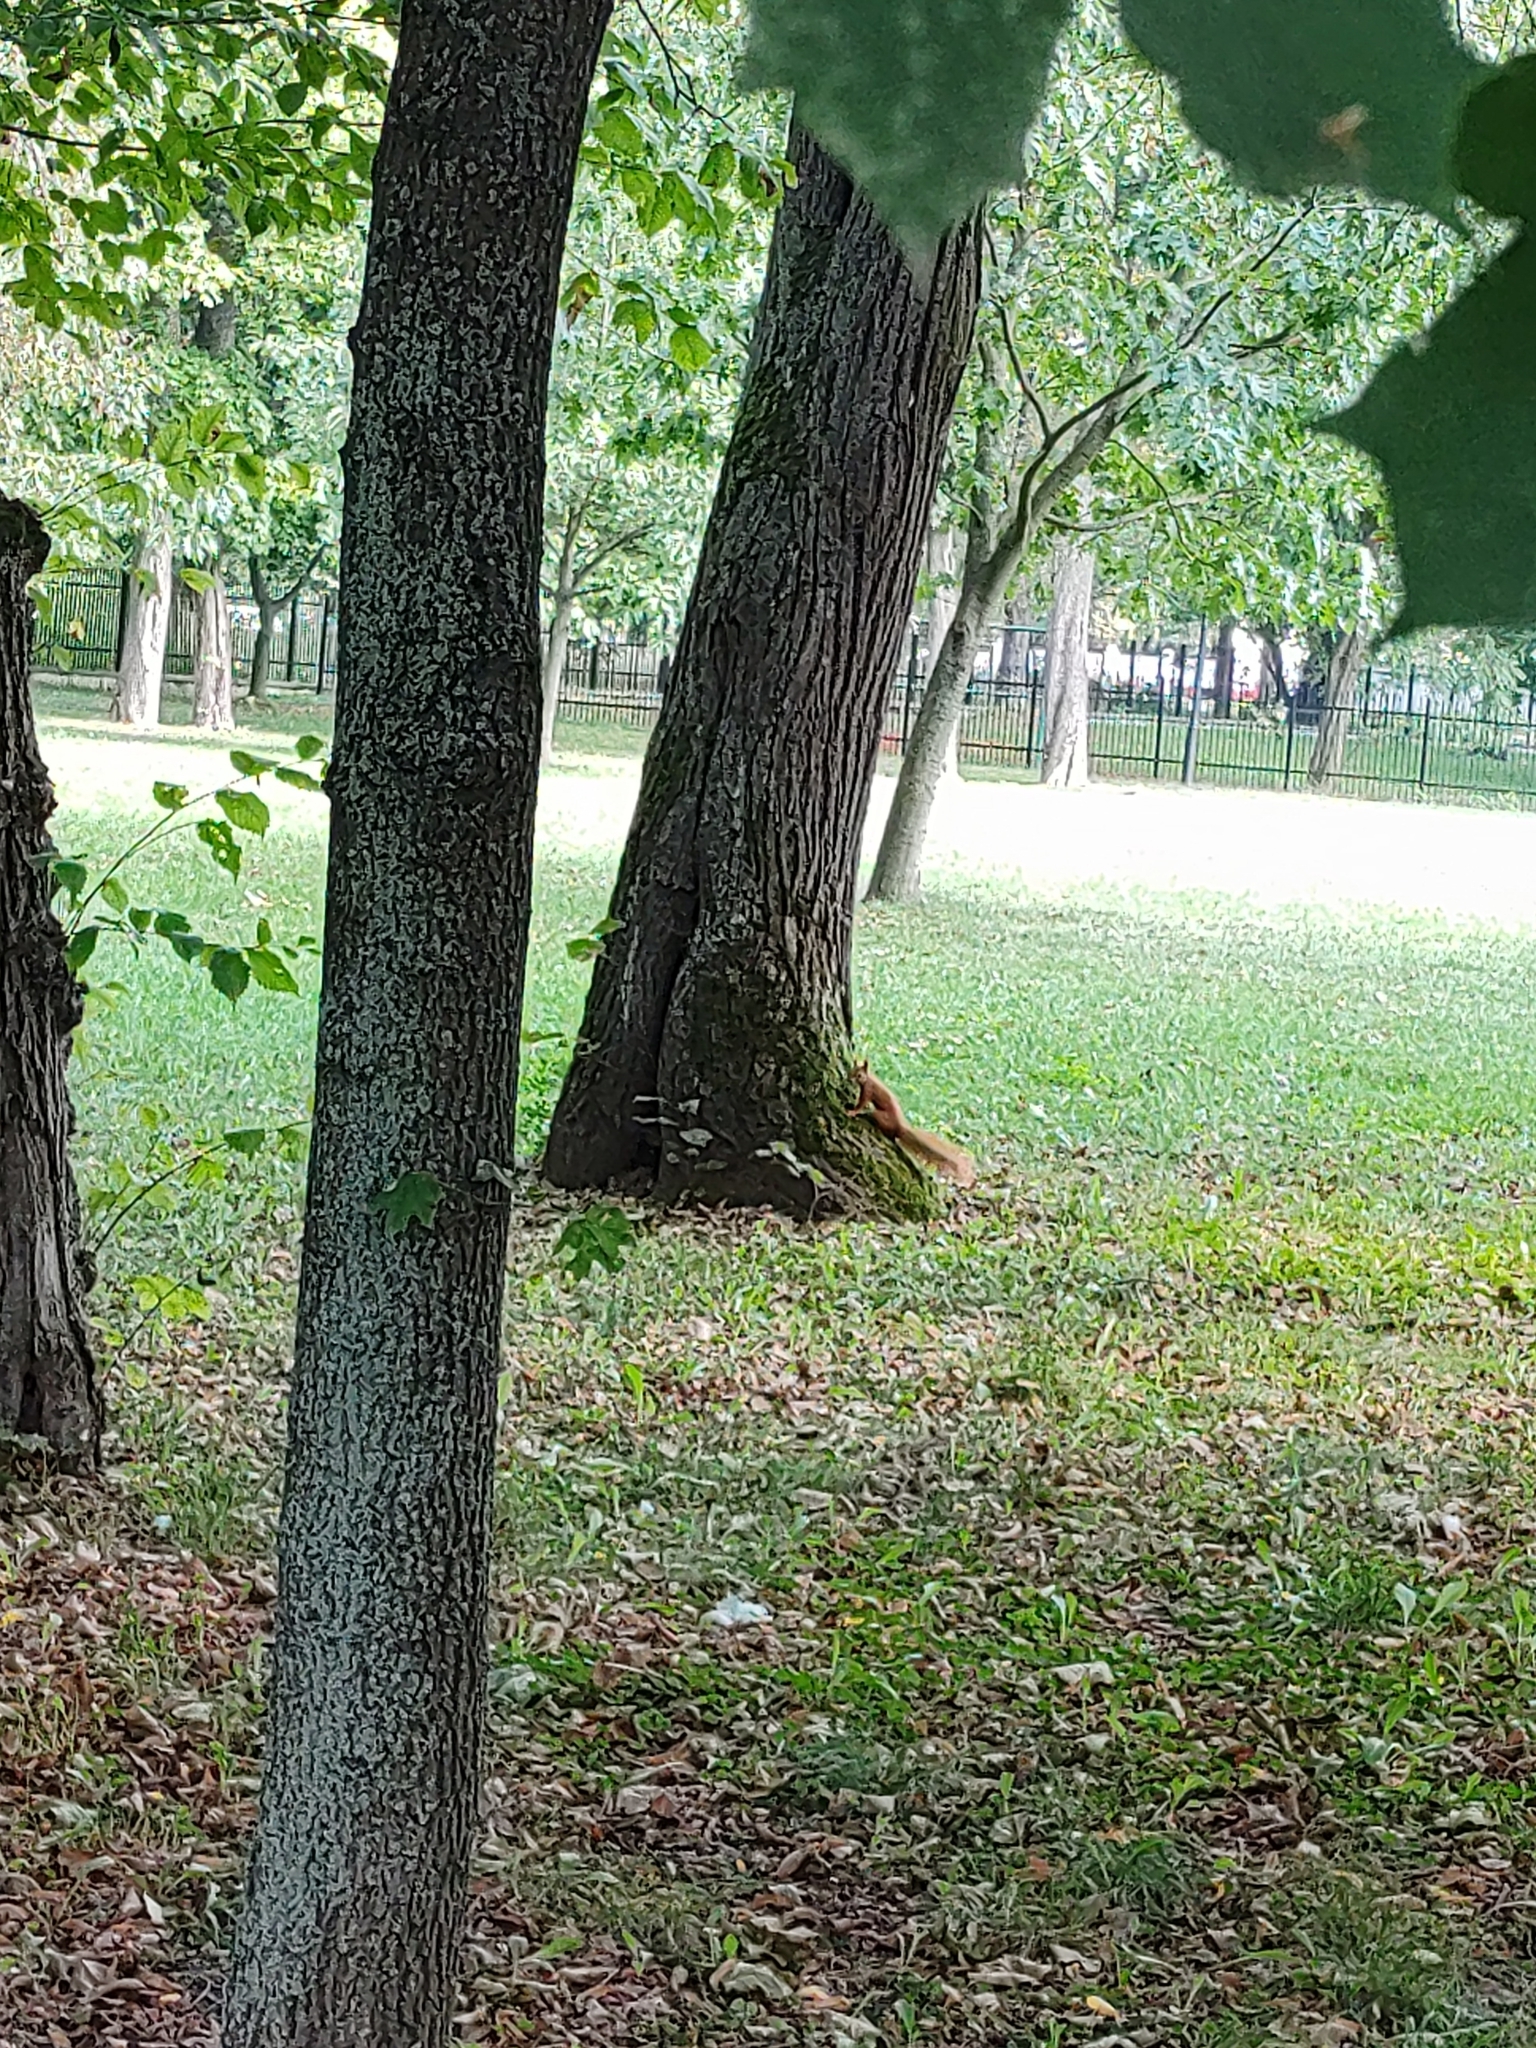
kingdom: Animalia
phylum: Chordata
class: Mammalia
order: Rodentia
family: Sciuridae
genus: Sciurus
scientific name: Sciurus vulgaris
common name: Eurasian red squirrel
